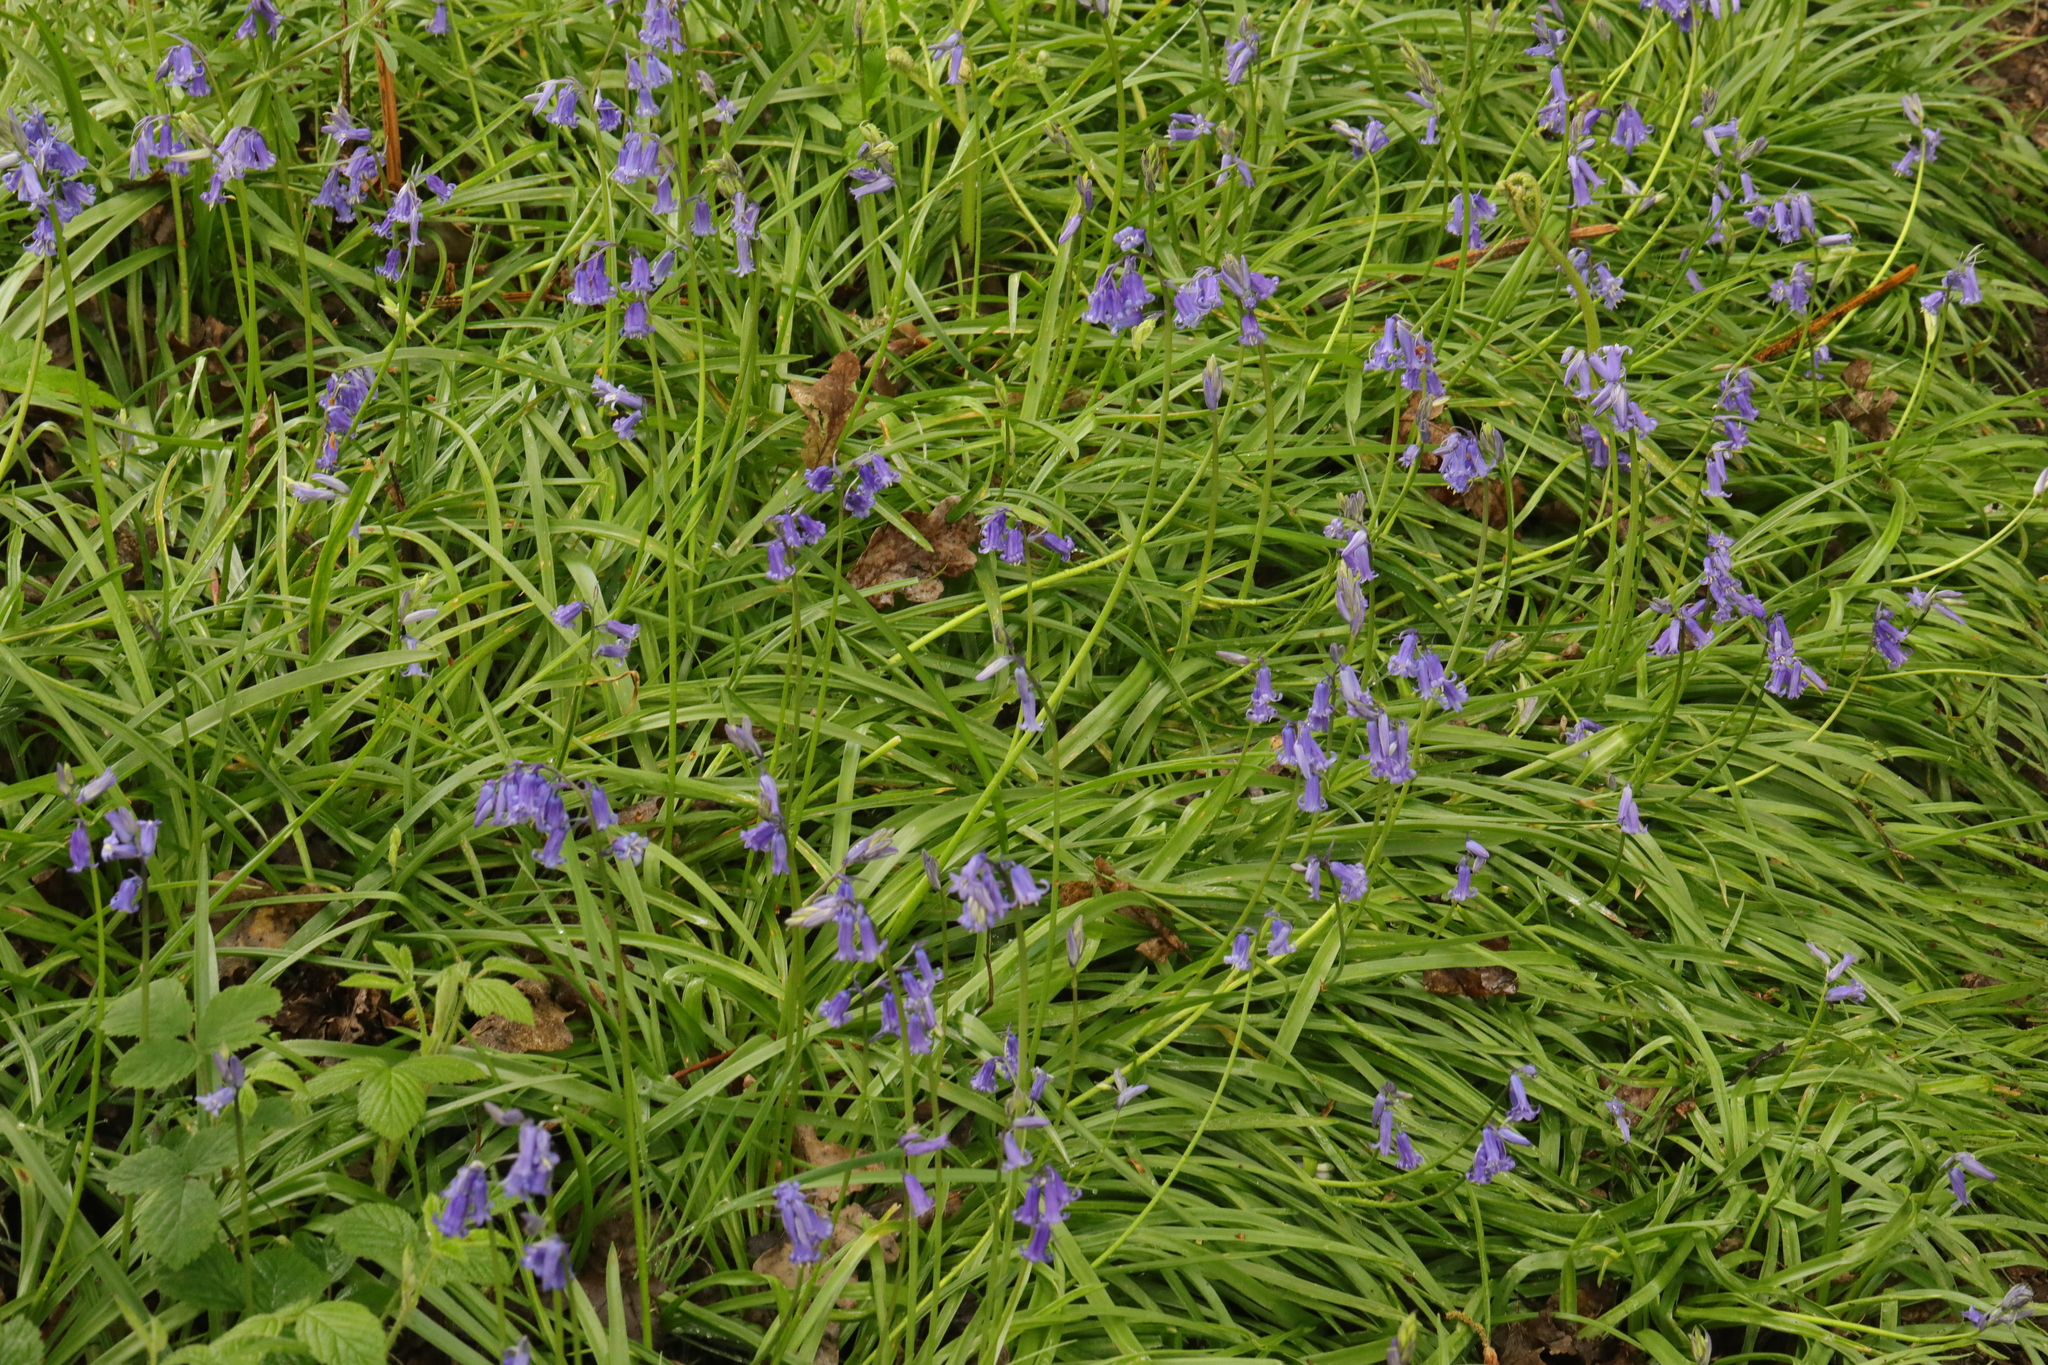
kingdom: Plantae
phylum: Tracheophyta
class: Liliopsida
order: Asparagales
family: Asparagaceae
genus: Hyacinthoides
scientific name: Hyacinthoides non-scripta
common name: Bluebell
